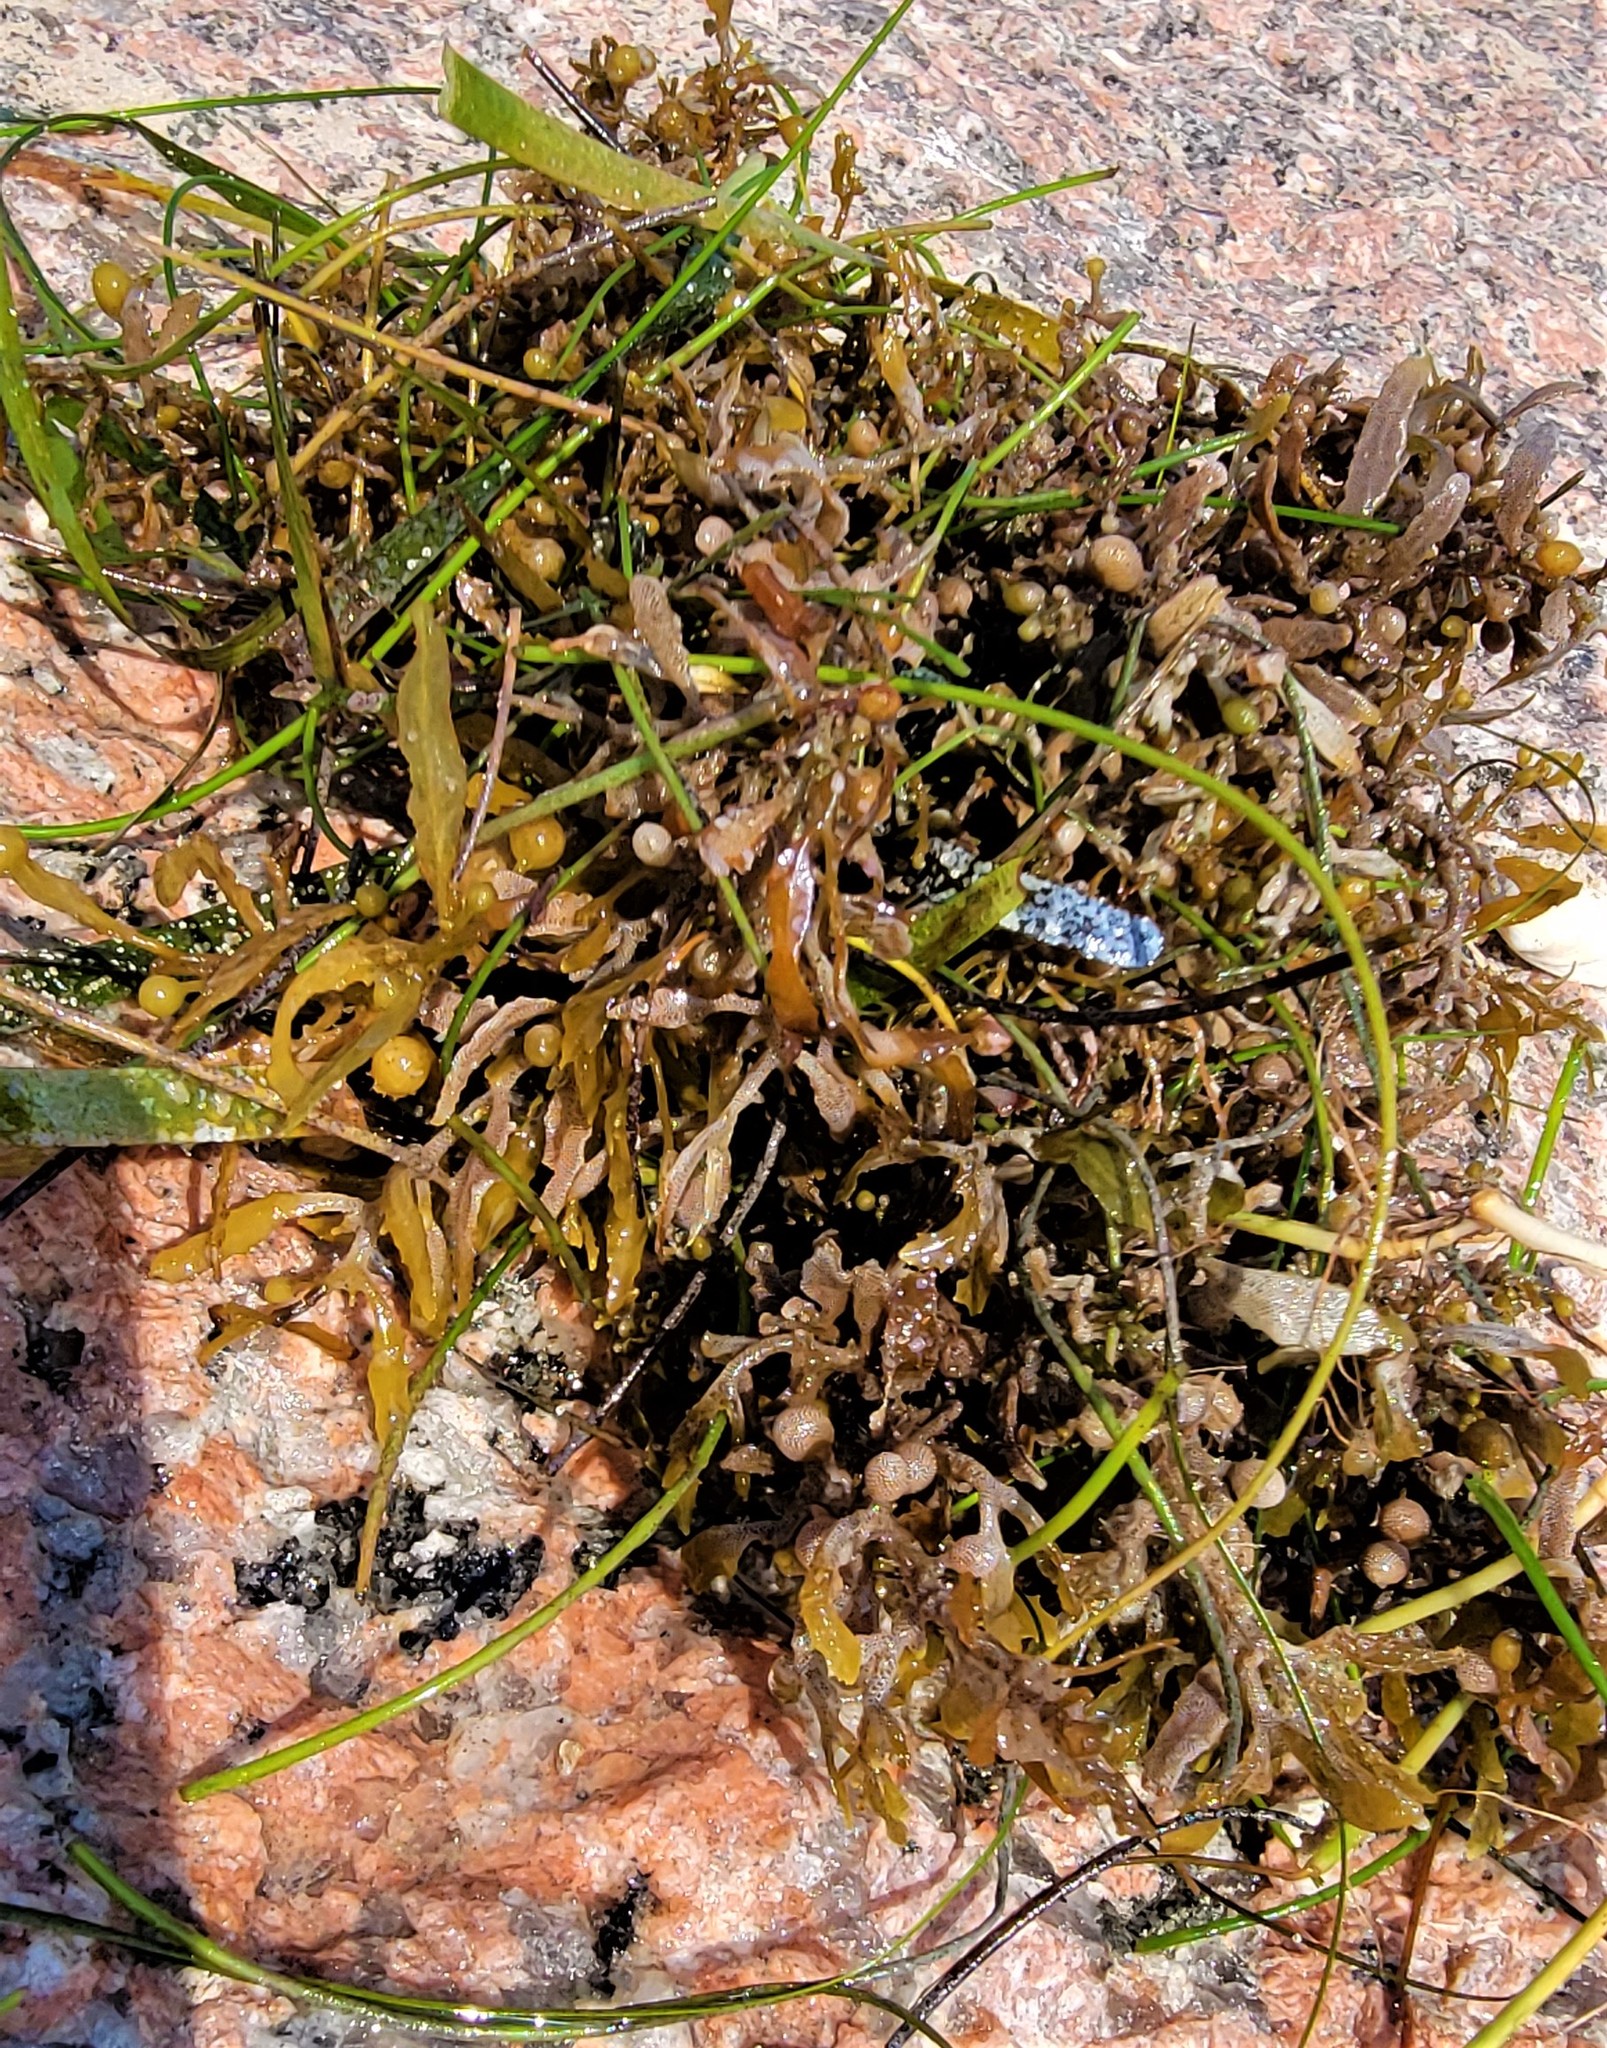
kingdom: Chromista
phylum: Ochrophyta
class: Phaeophyceae
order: Fucales
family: Sargassaceae
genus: Sargassum
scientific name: Sargassum fluitans
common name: Sargassum seaweed
